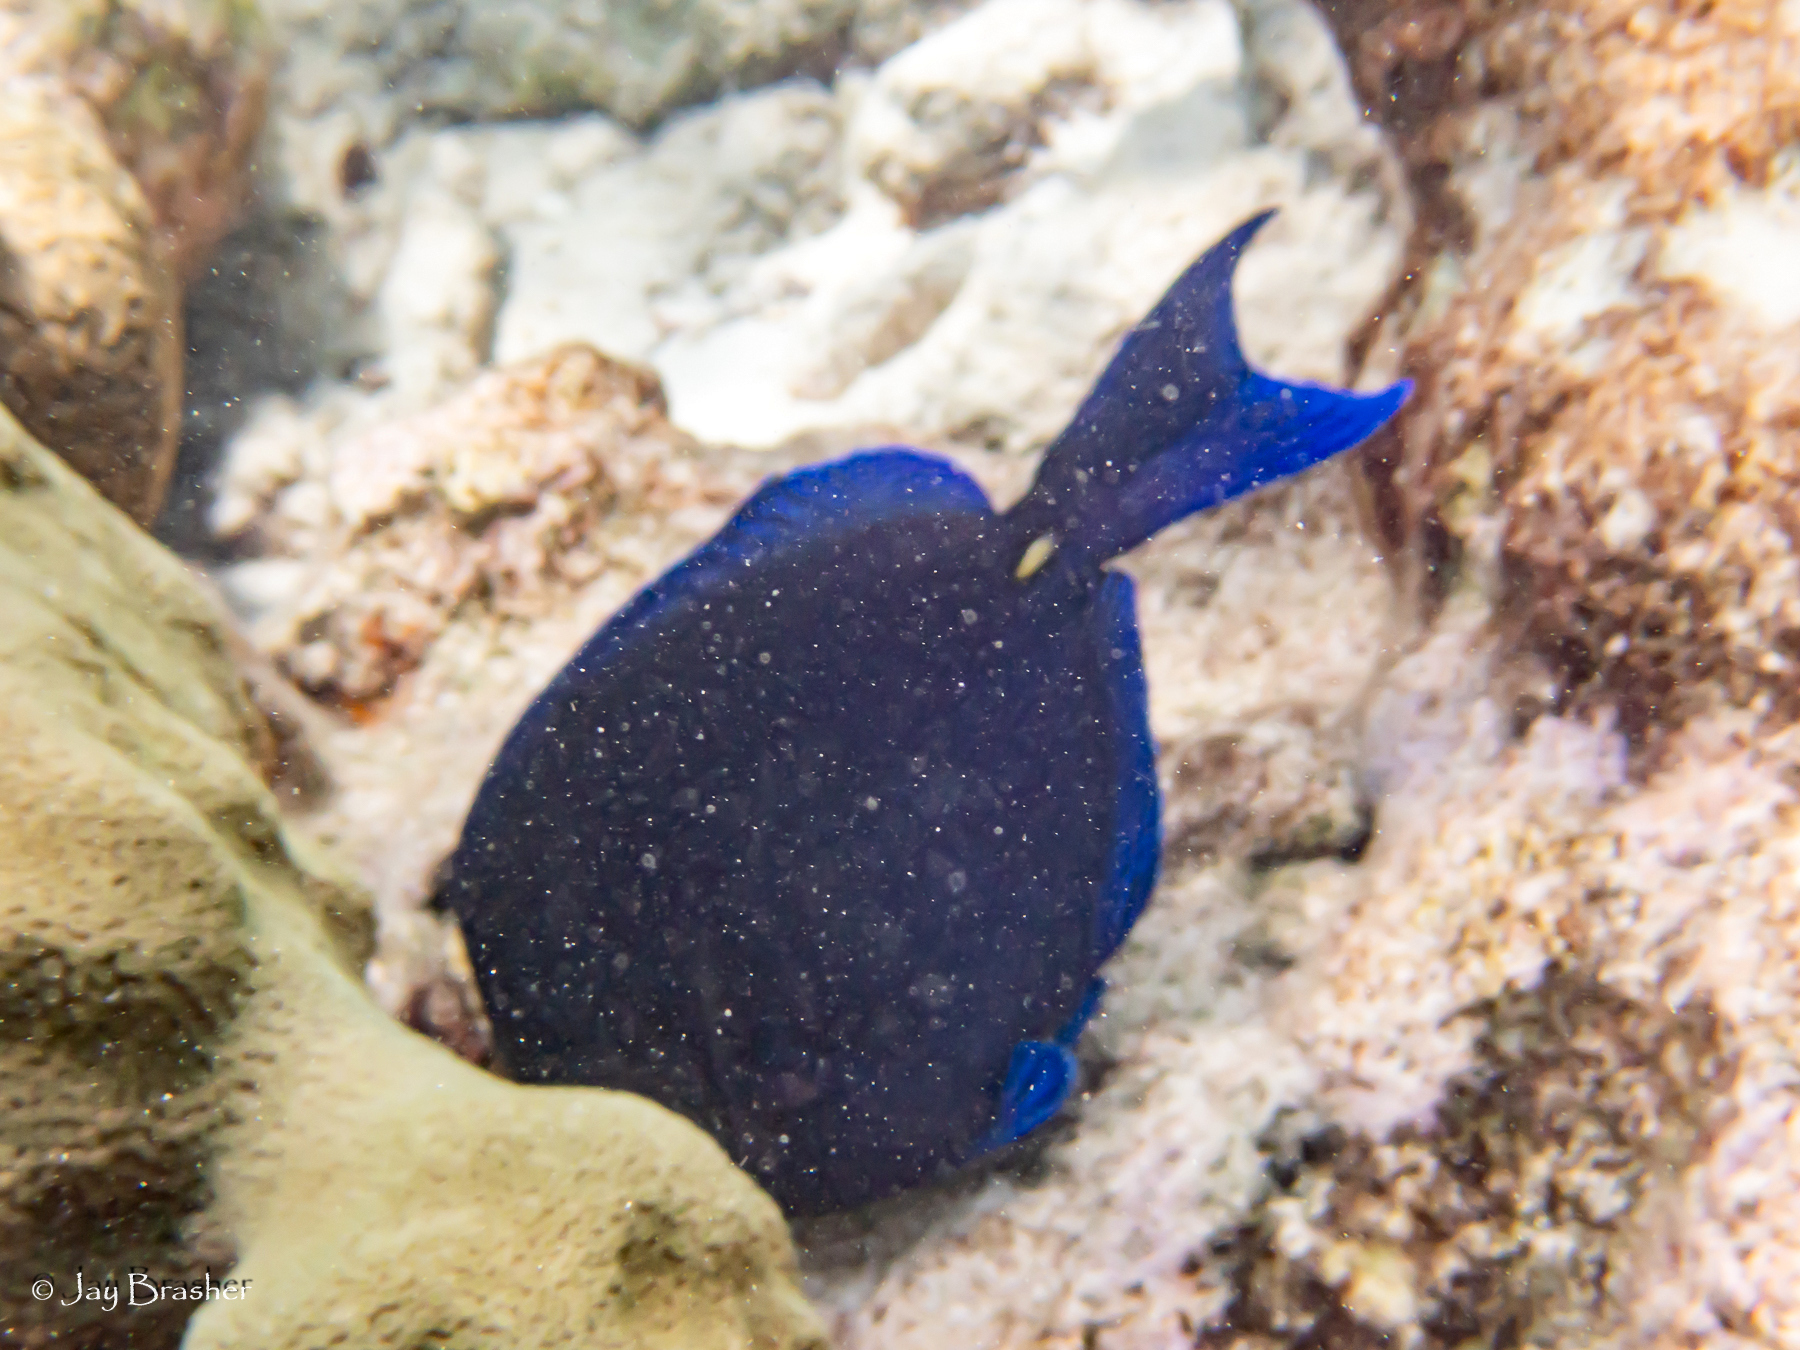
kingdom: Animalia
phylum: Chordata
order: Perciformes
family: Acanthuridae
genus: Acanthurus
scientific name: Acanthurus coeruleus
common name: Blue tang
